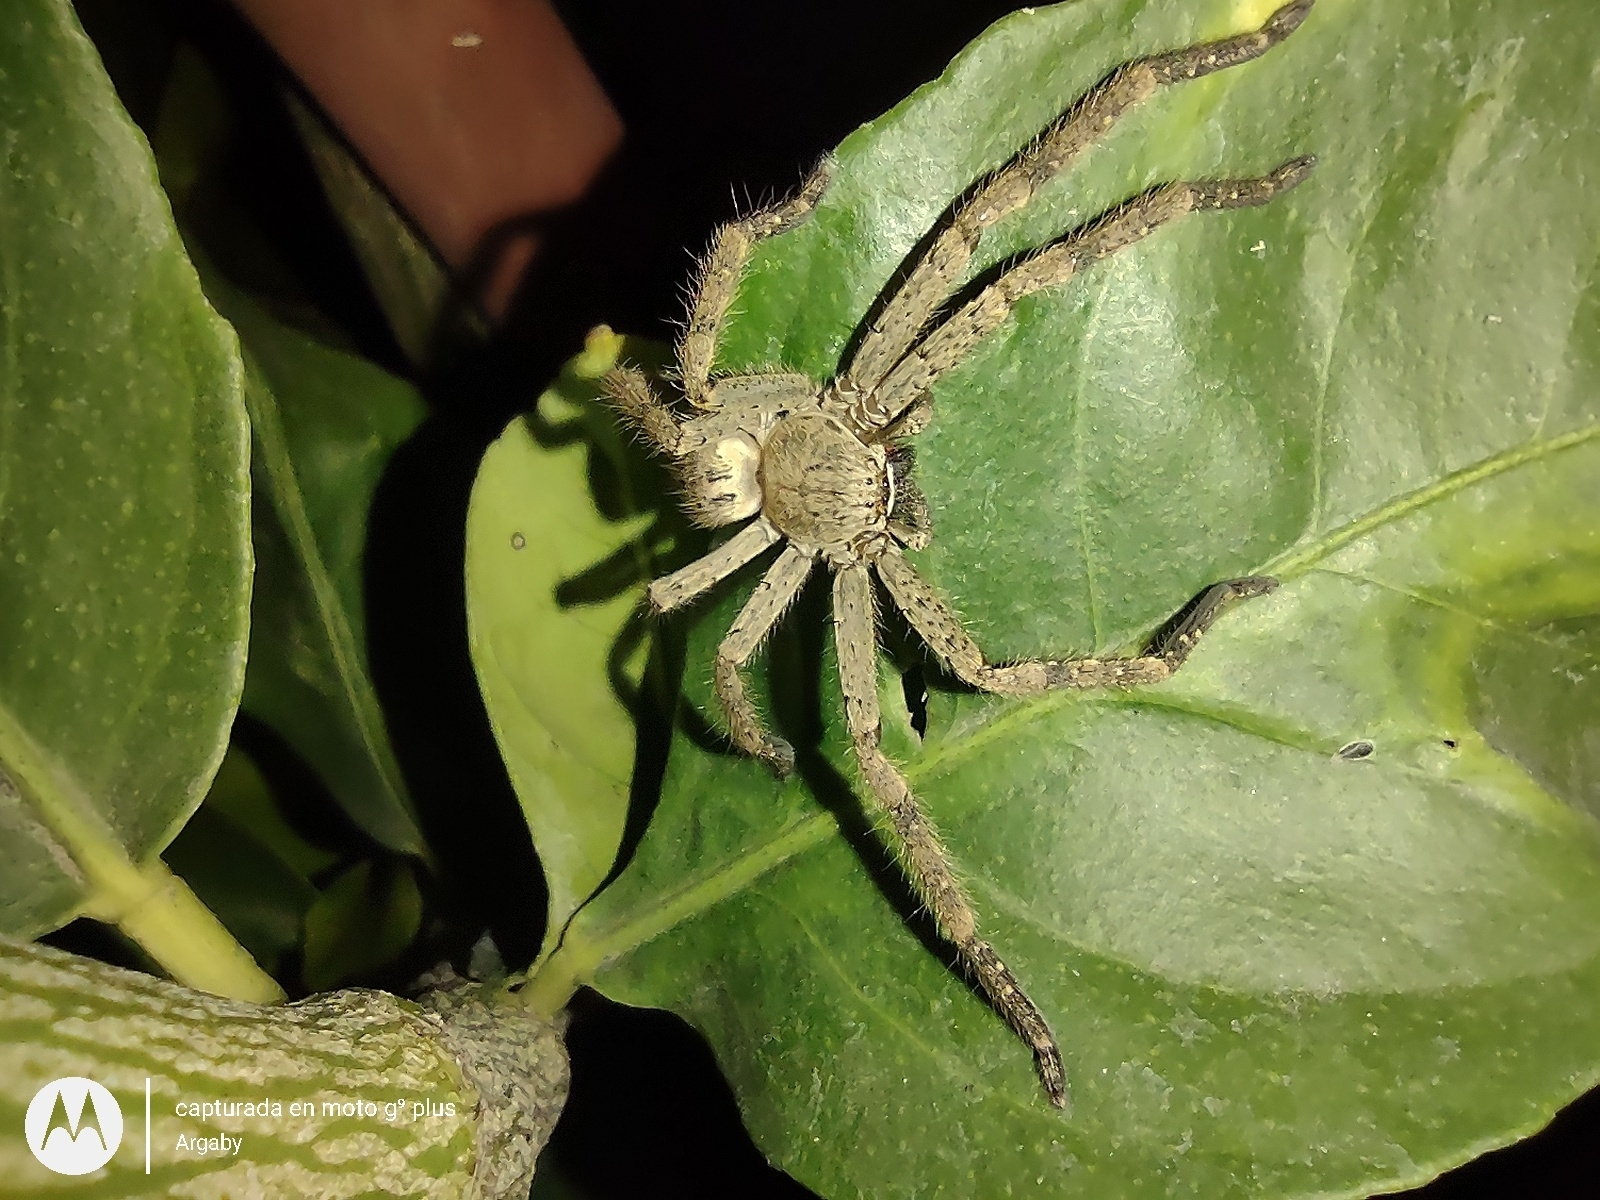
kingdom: Animalia
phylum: Arthropoda
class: Arachnida
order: Araneae
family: Sparassidae
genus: Polybetes
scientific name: Polybetes rapidus
